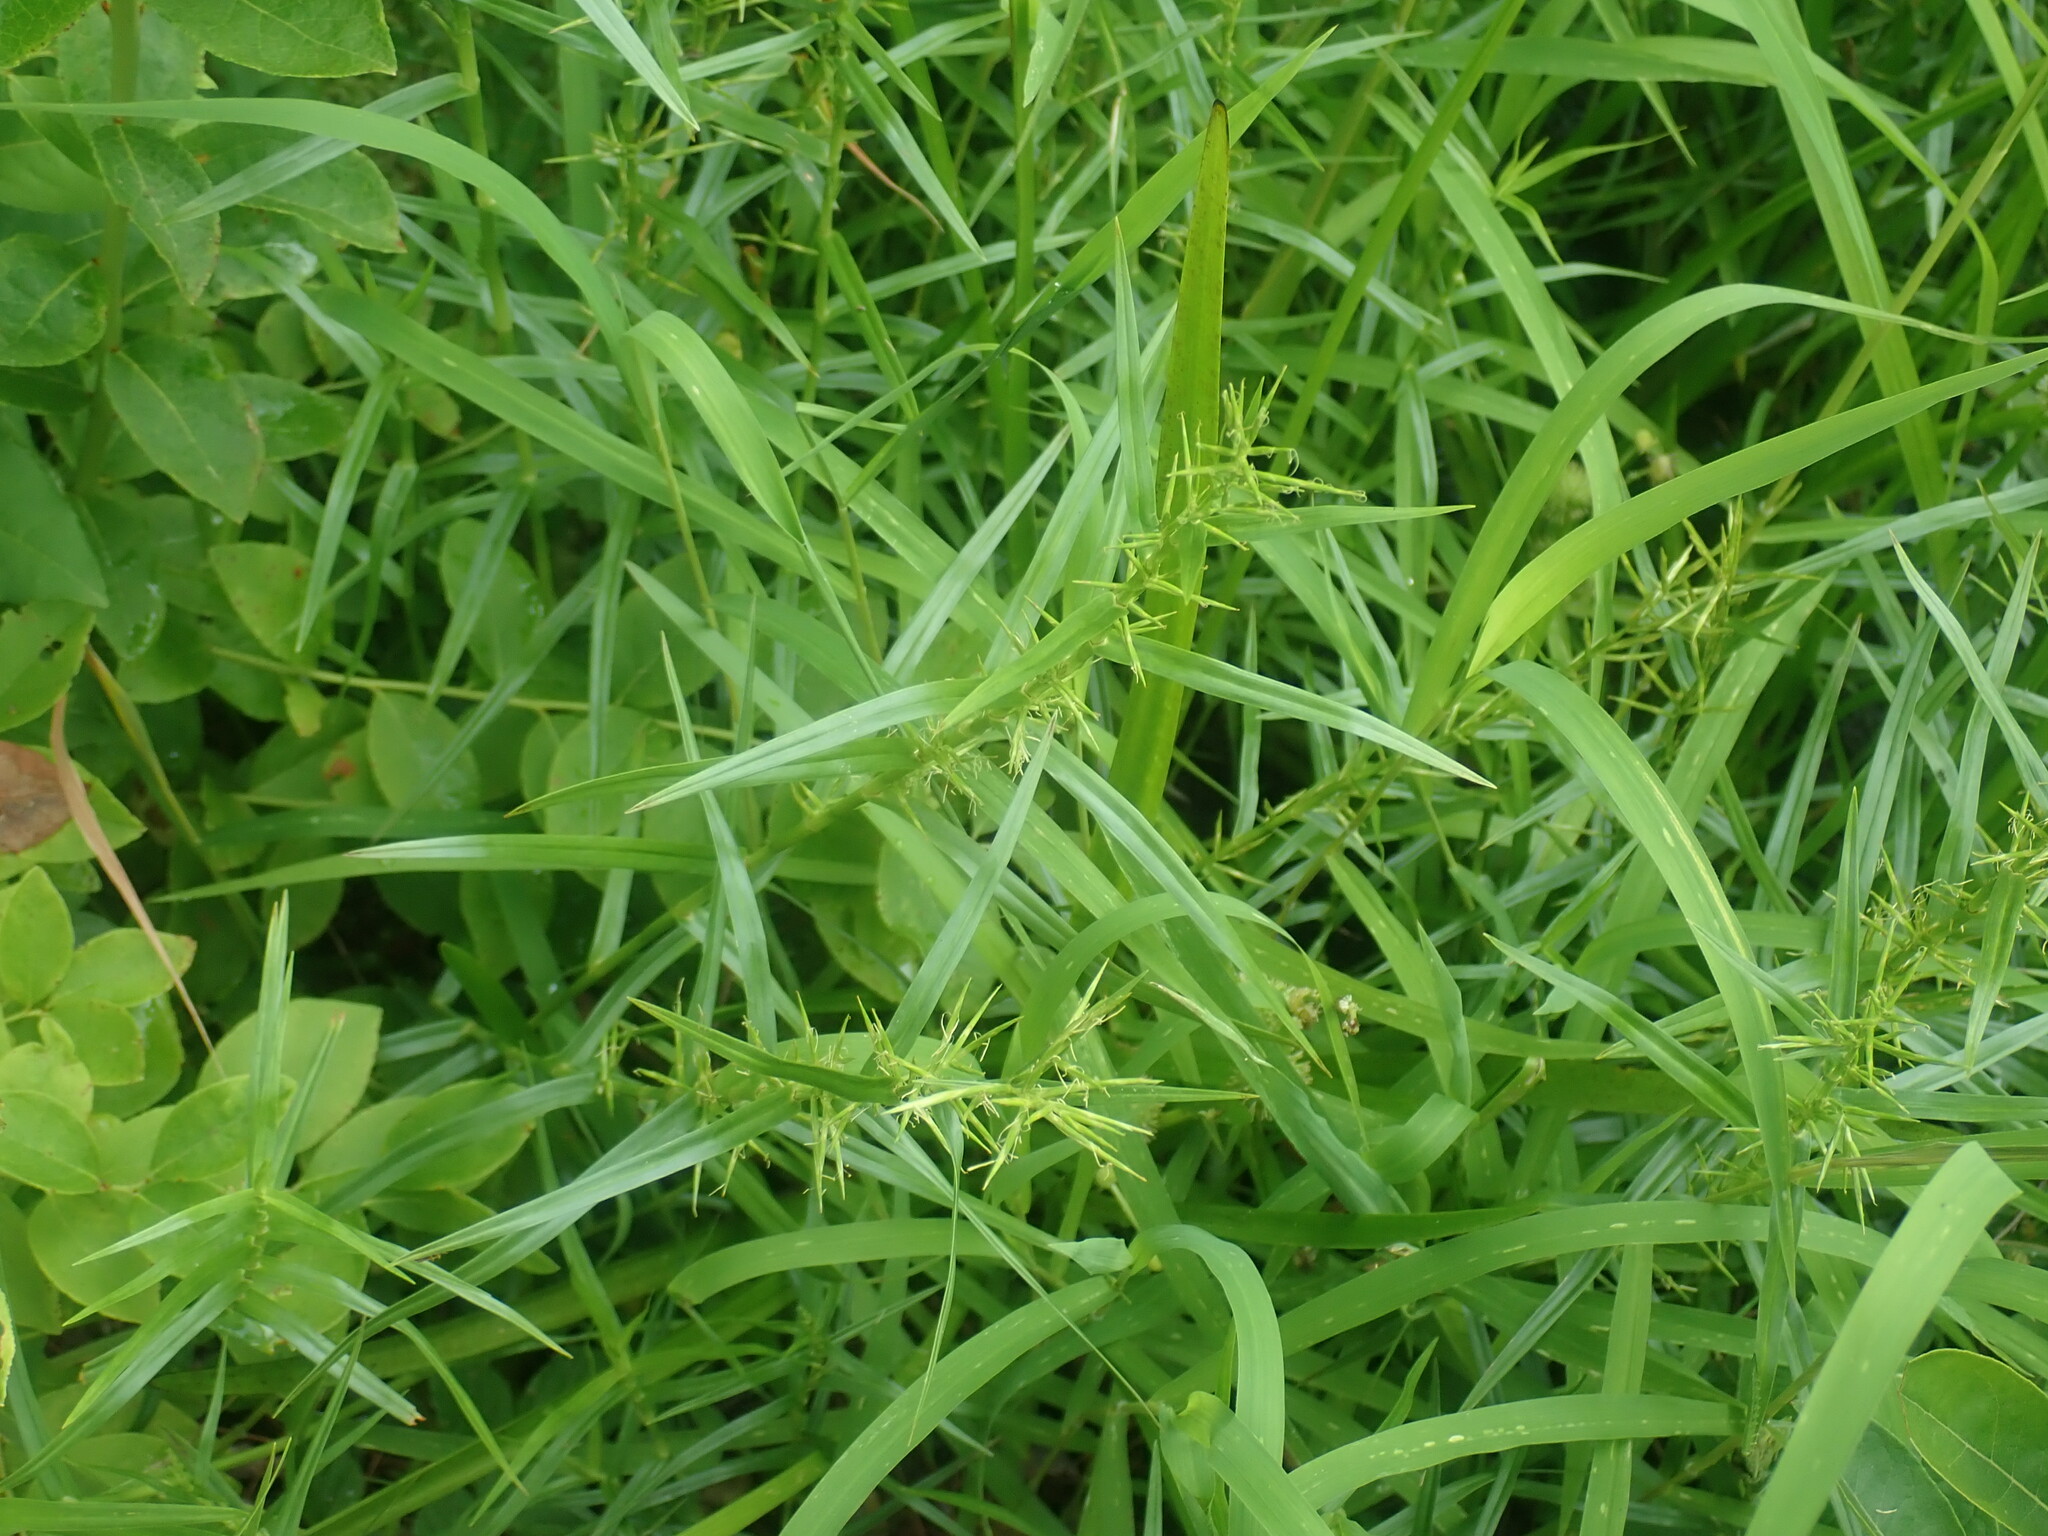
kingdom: Plantae
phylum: Tracheophyta
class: Liliopsida
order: Poales
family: Cyperaceae
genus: Dulichium
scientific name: Dulichium arundinaceum
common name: Three-way sedge
